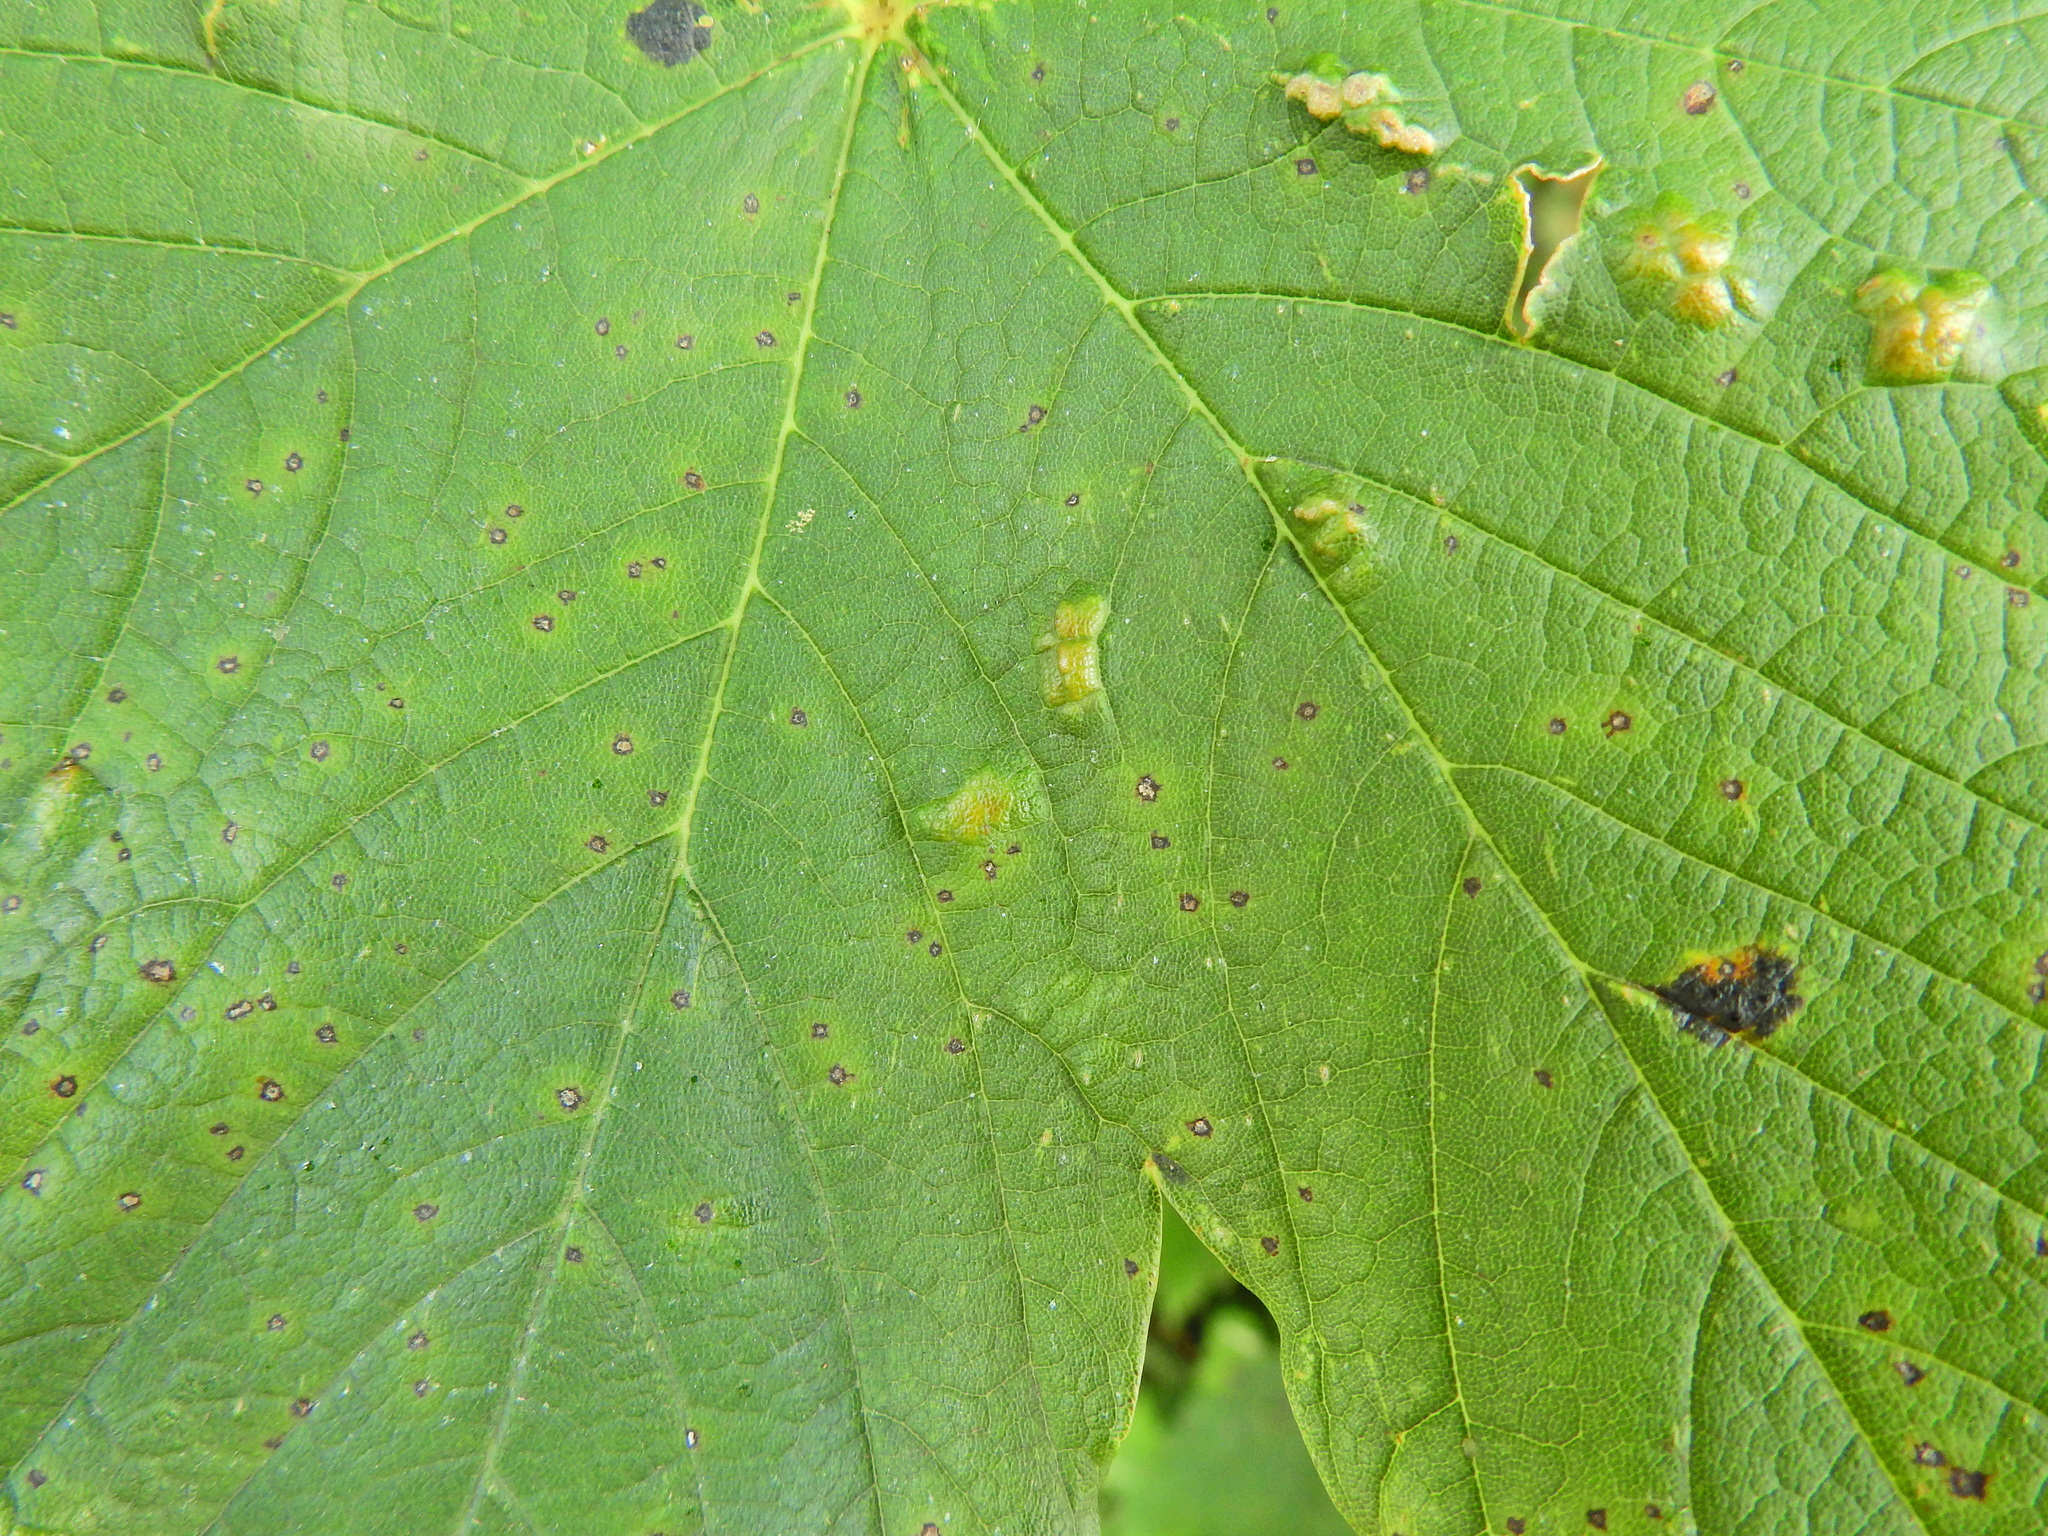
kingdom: Animalia
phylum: Arthropoda
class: Arachnida
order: Trombidiformes
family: Eriophyidae
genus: Aceria
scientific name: Aceria pseudoplatani
